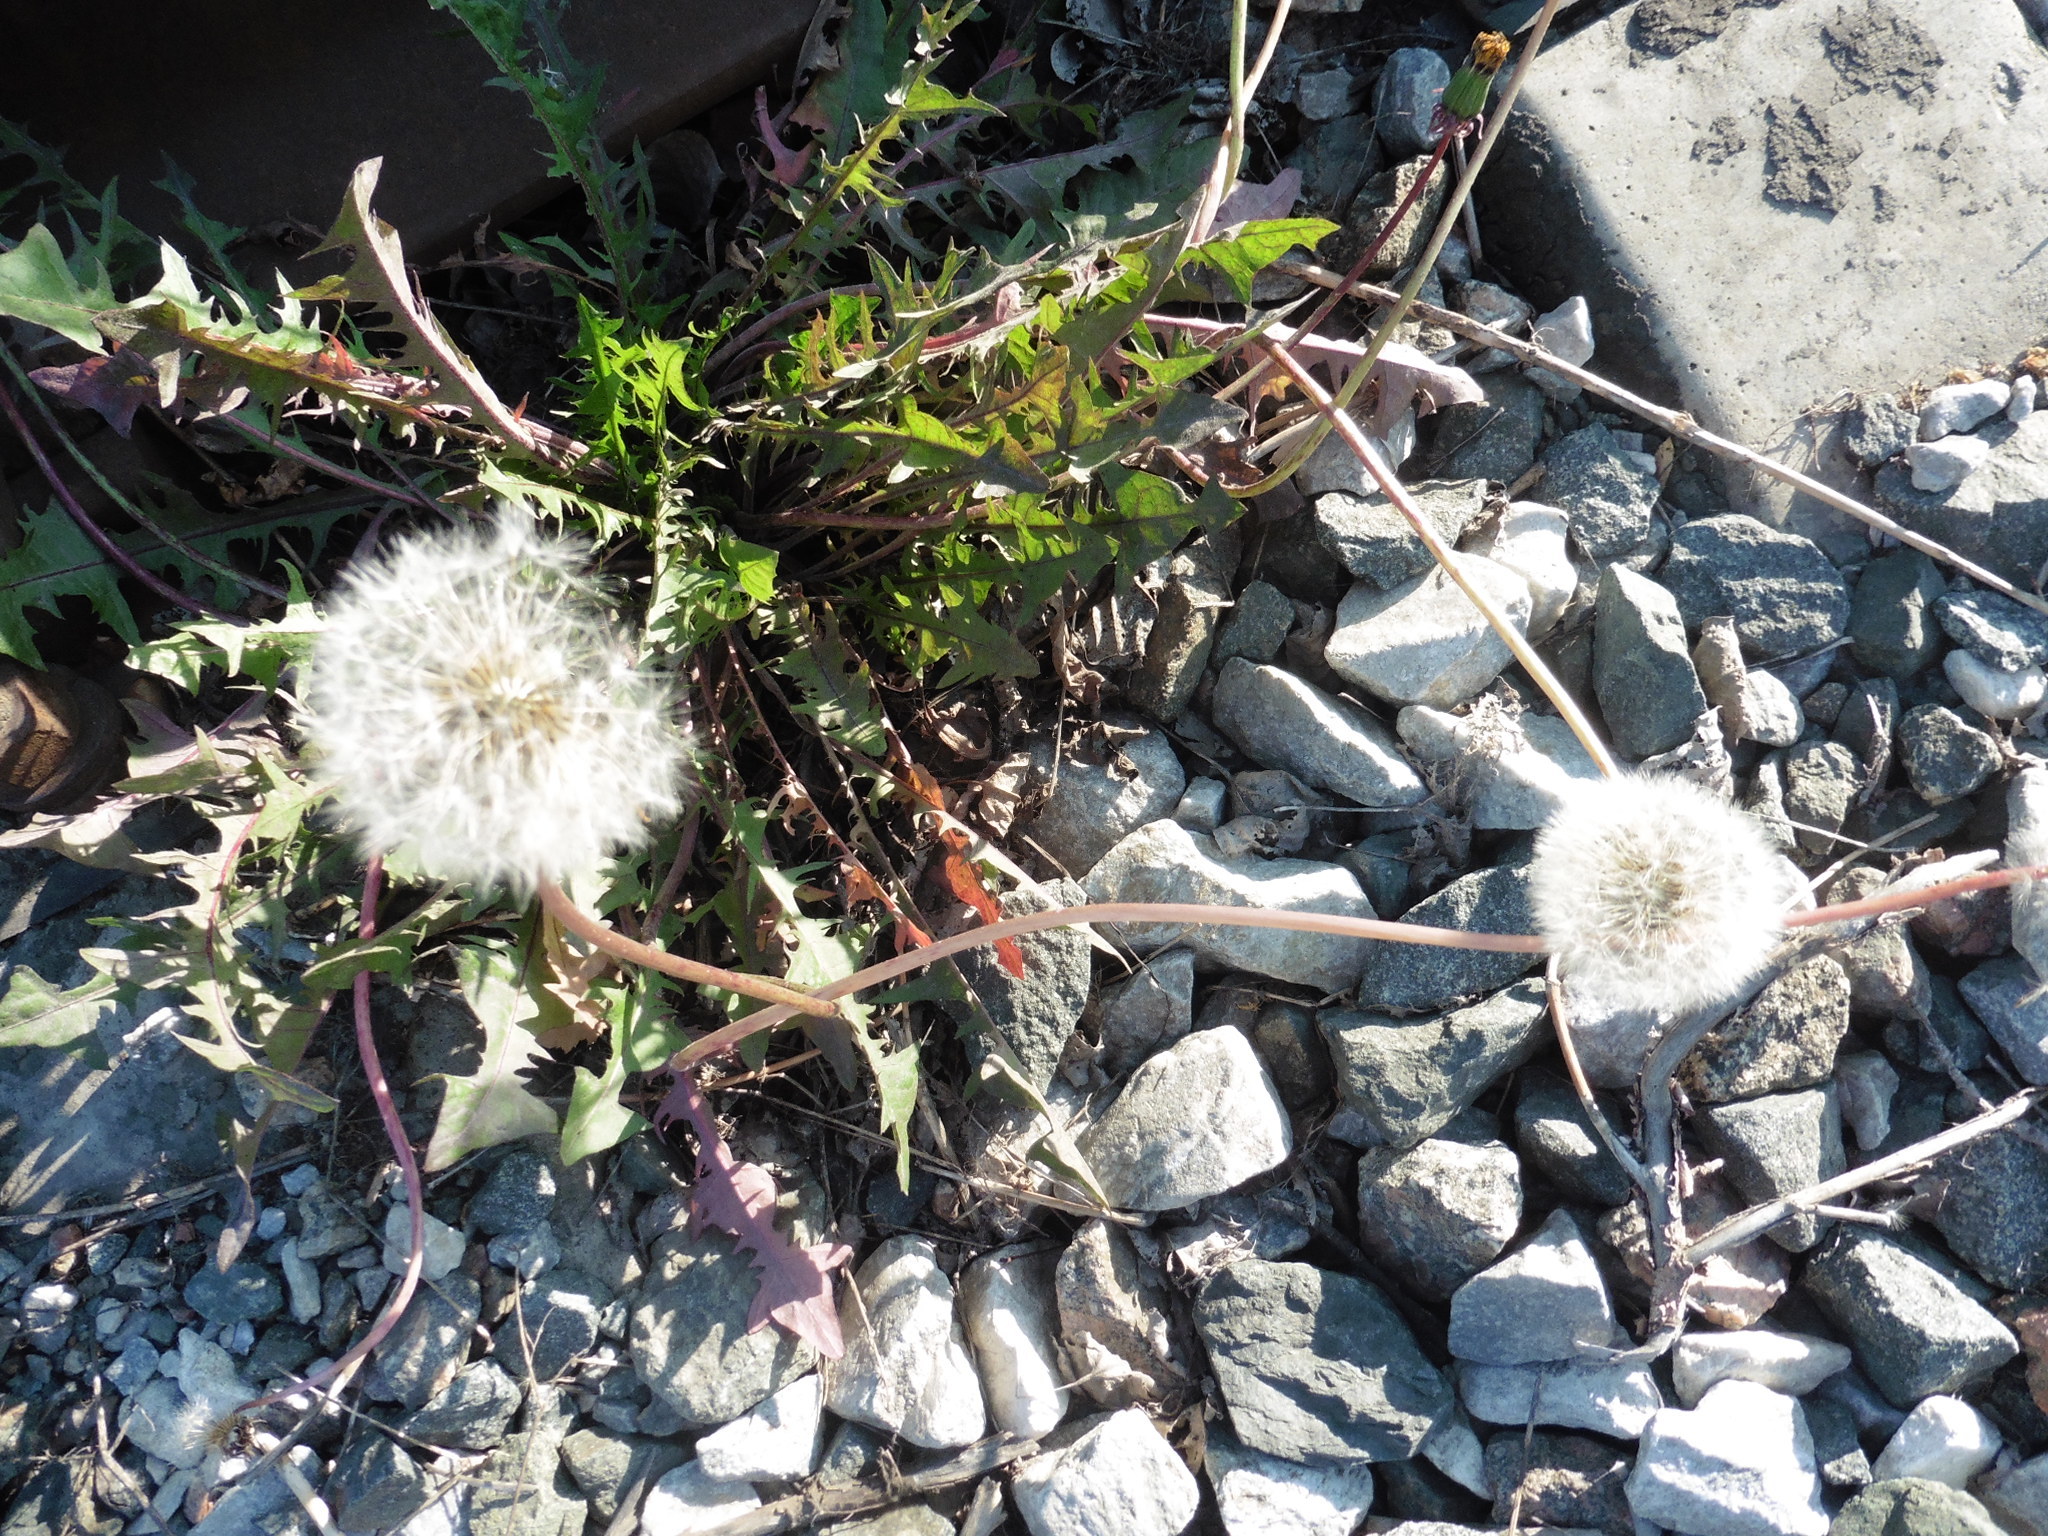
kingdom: Plantae
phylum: Tracheophyta
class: Magnoliopsida
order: Asterales
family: Asteraceae
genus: Taraxacum
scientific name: Taraxacum officinale
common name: Common dandelion
